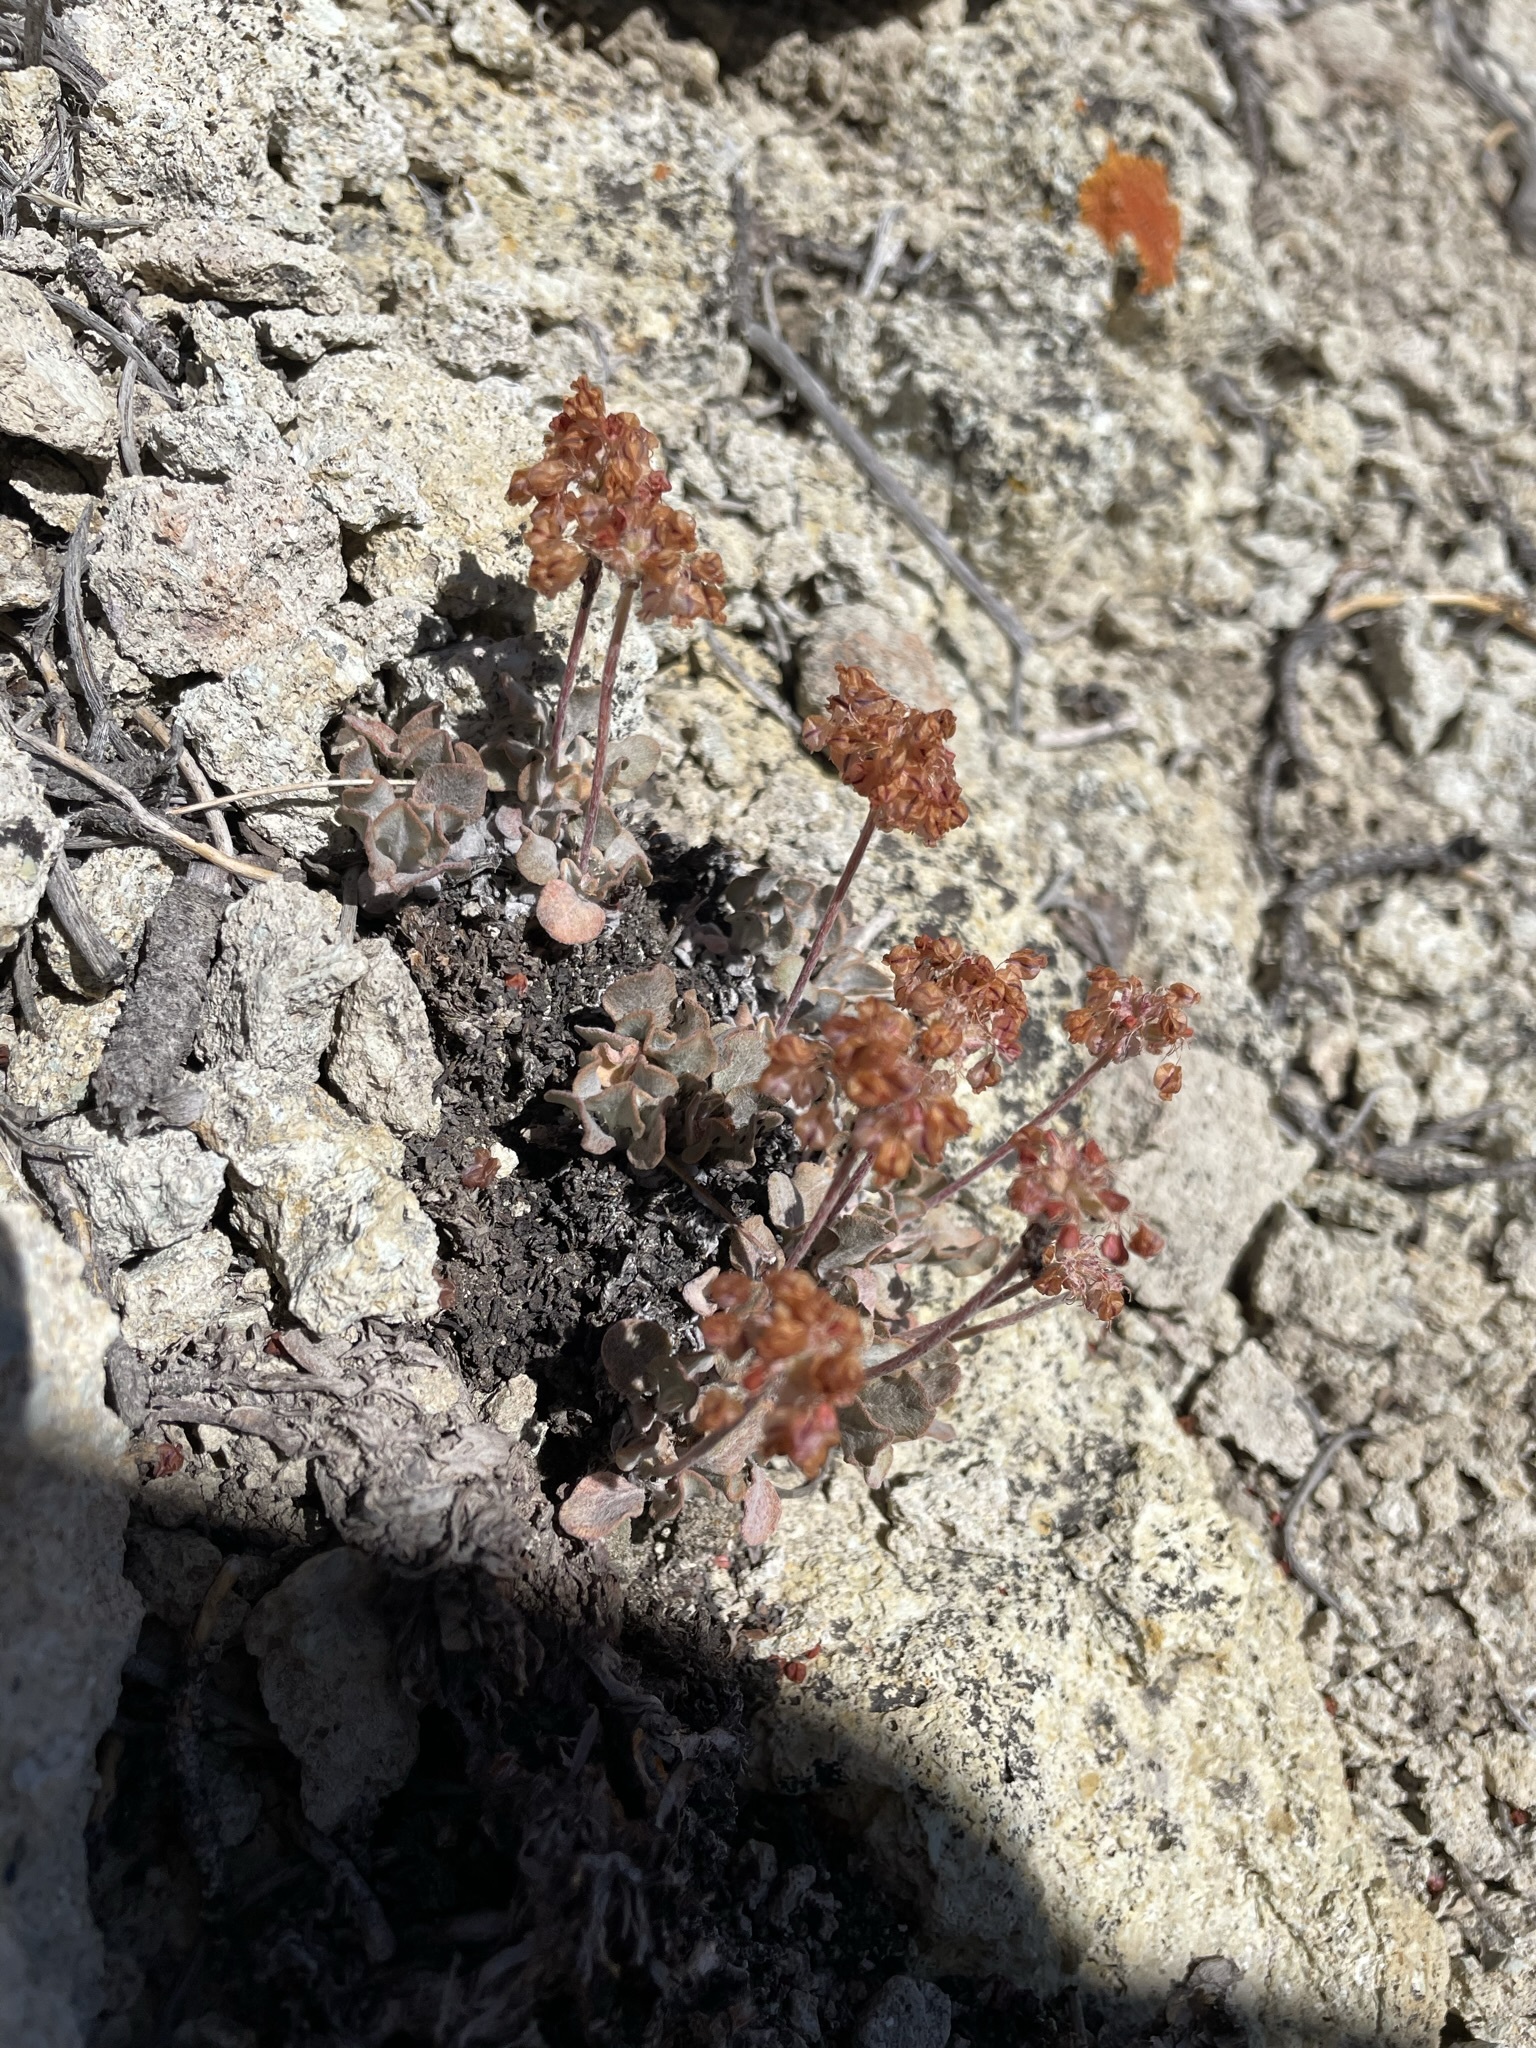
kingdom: Plantae
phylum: Tracheophyta
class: Magnoliopsida
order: Caryophyllales
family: Polygonaceae
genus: Eriogonum
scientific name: Eriogonum ovalifolium
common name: Cushion buckwheat
